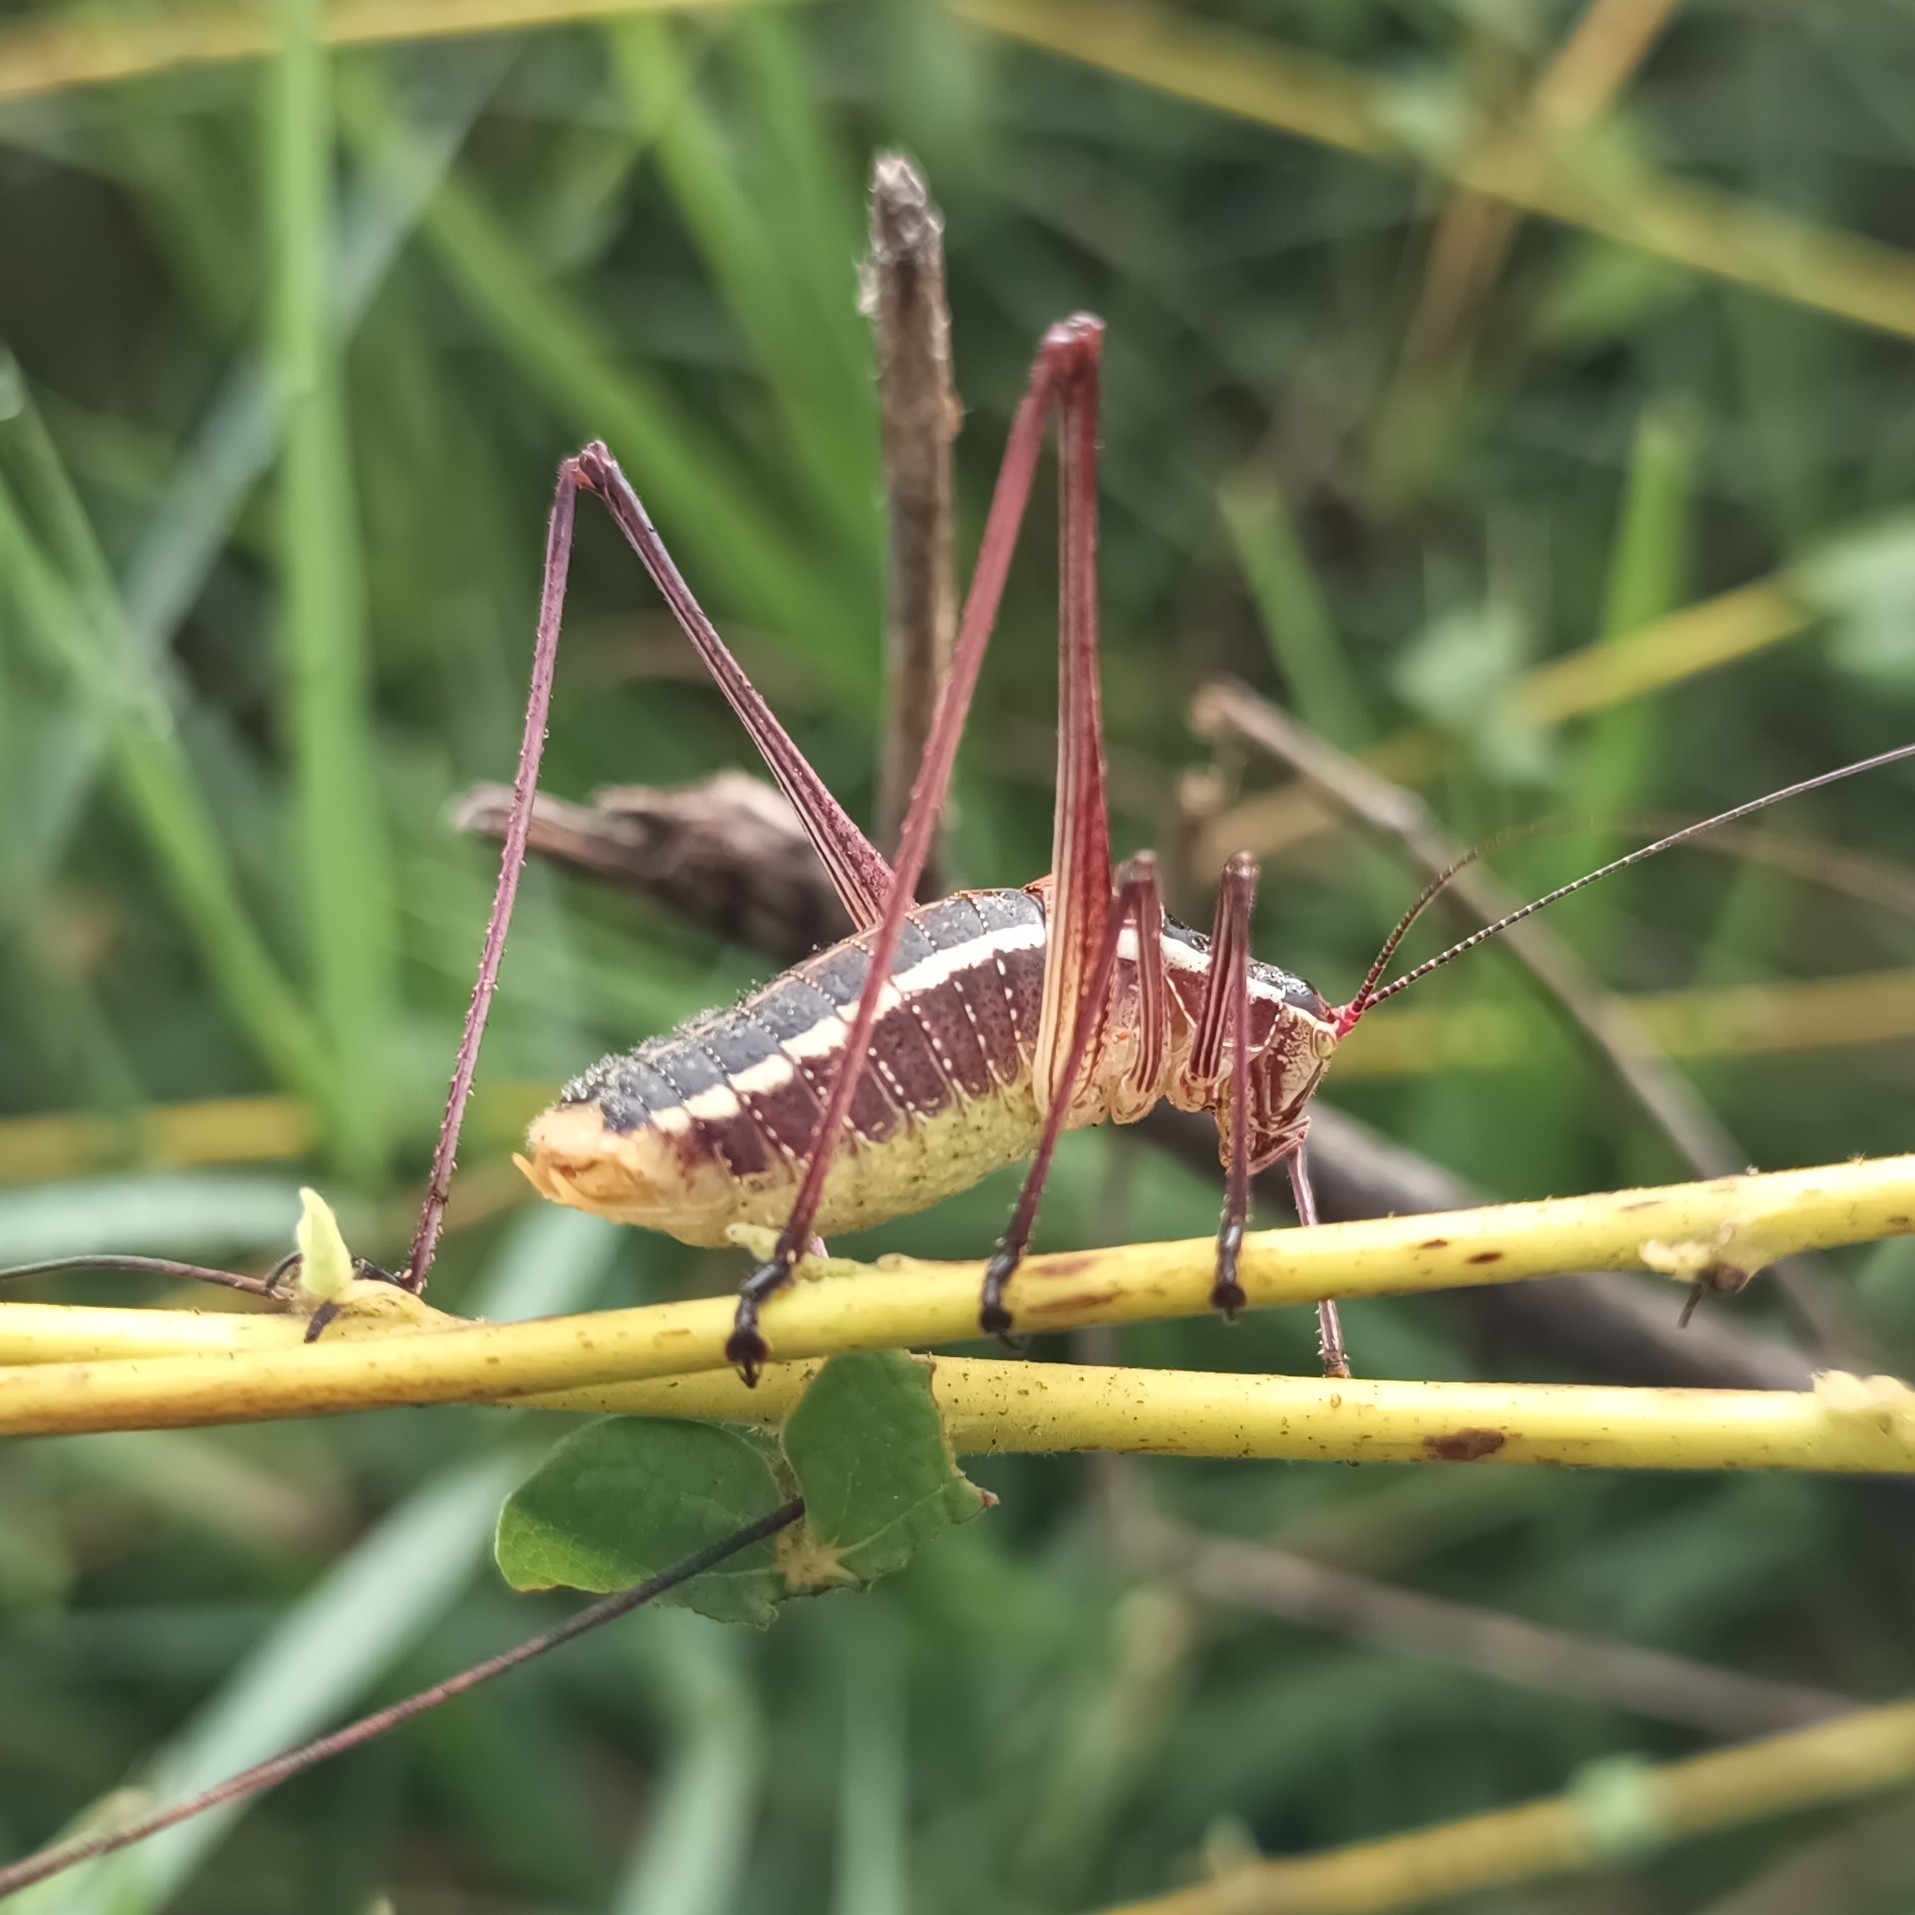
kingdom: Animalia
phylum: Arthropoda
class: Insecta
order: Orthoptera
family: Tettigoniidae
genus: Obolopteryx
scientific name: Obolopteryx brevihastata
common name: Common short-winged katydid
